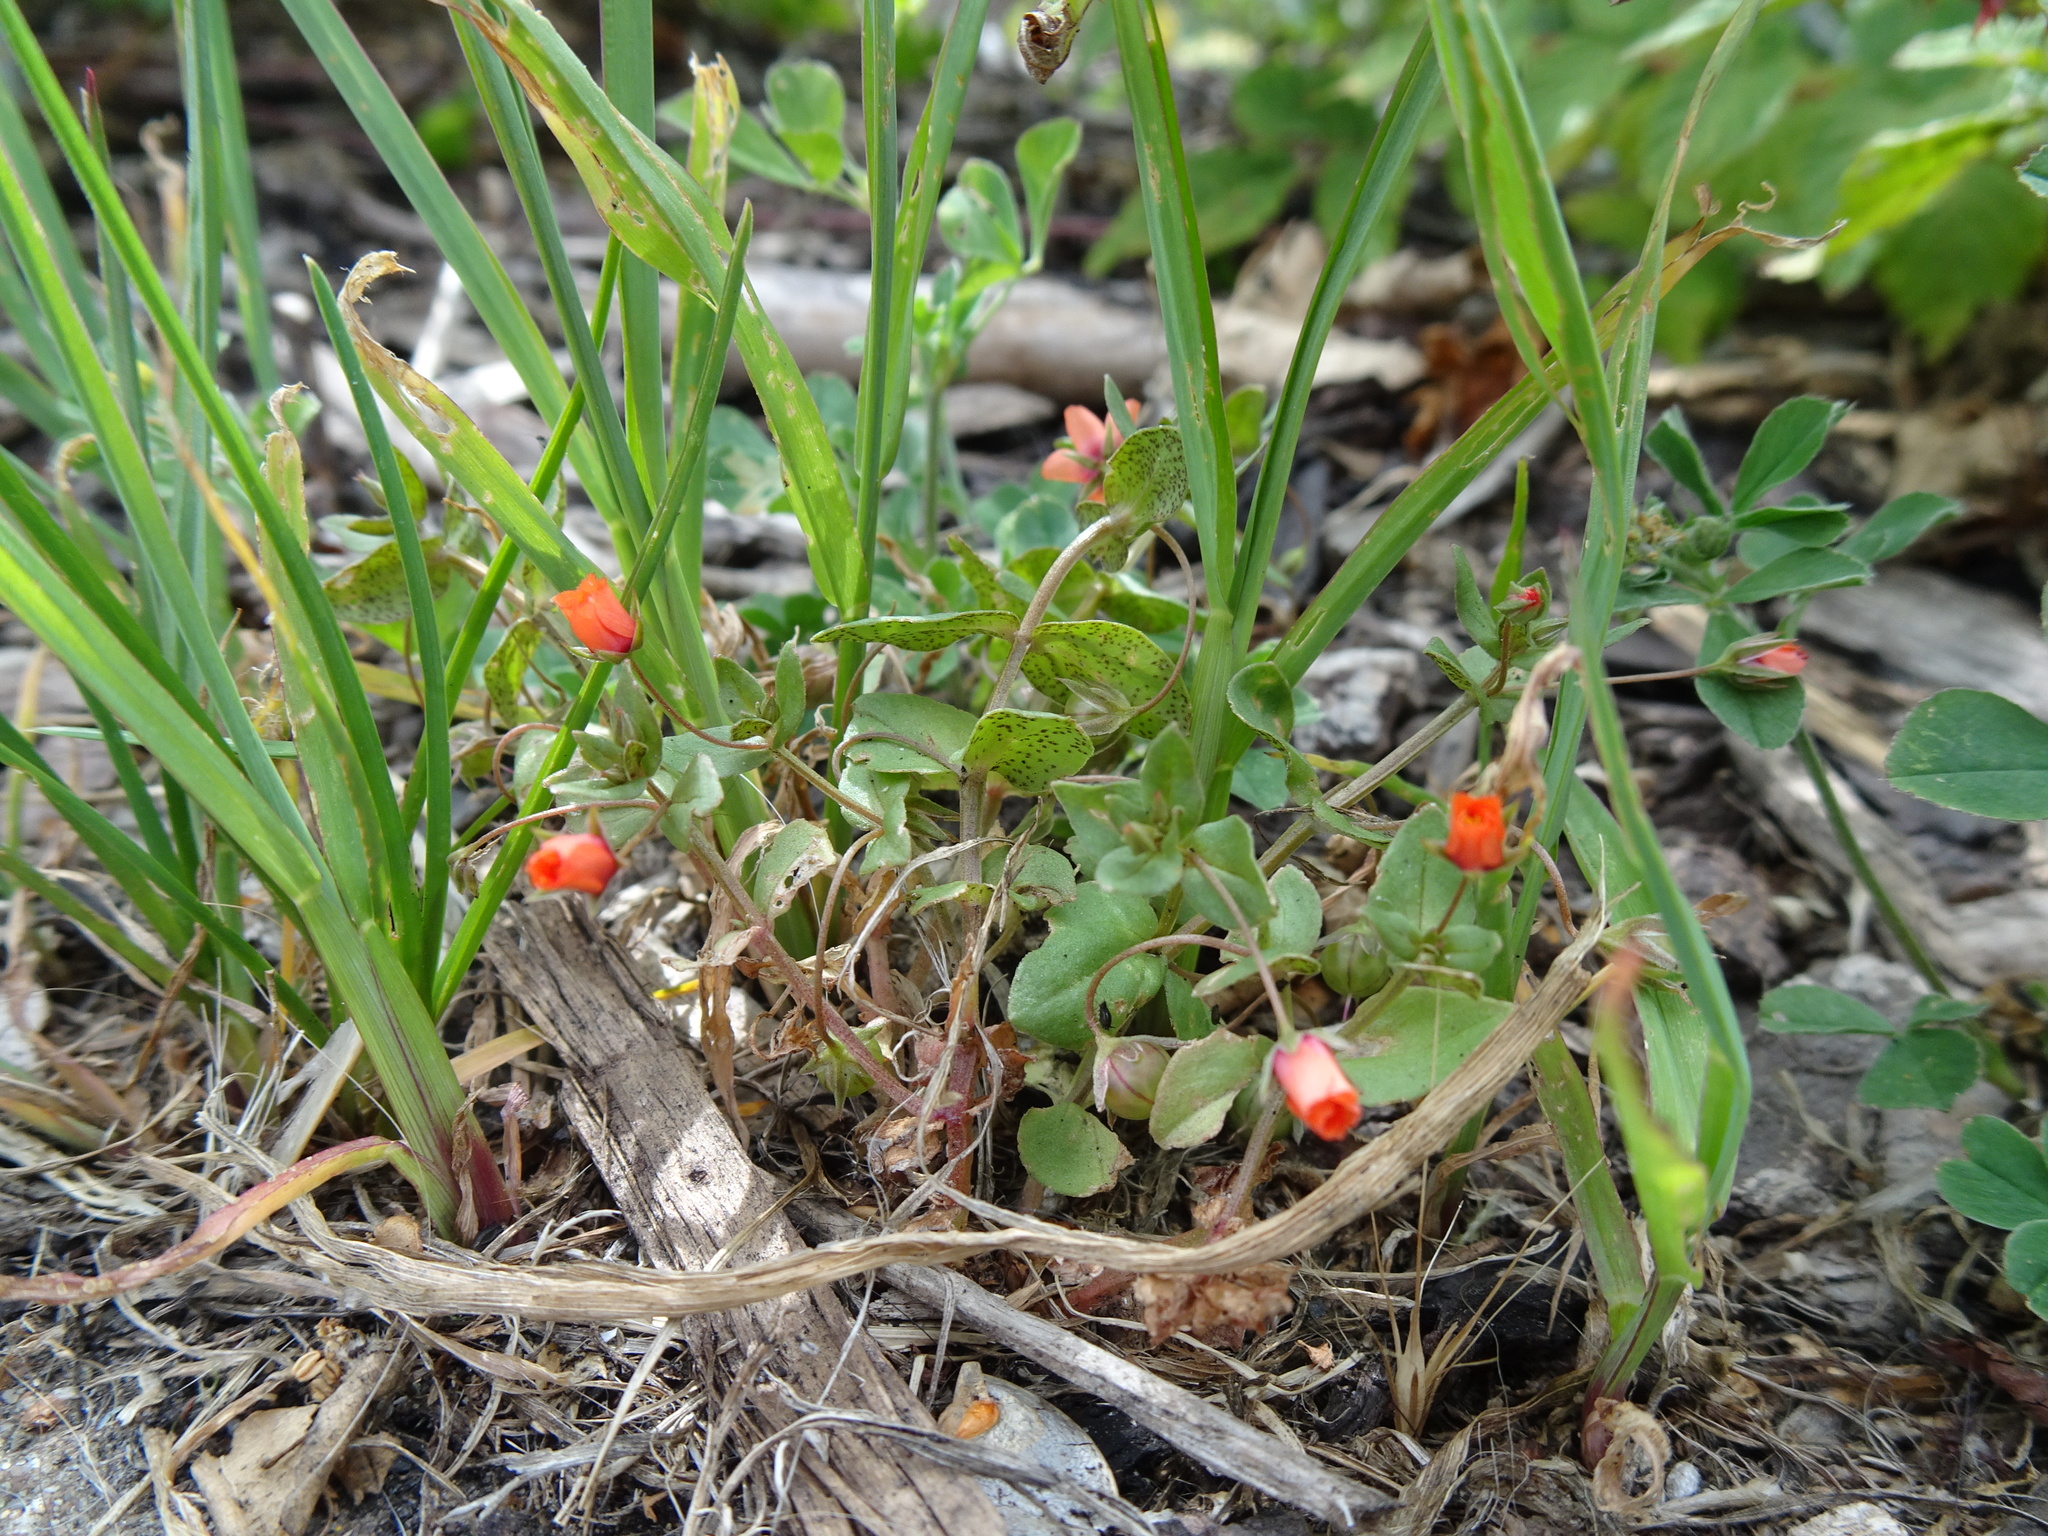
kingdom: Plantae
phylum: Tracheophyta
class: Magnoliopsida
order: Ericales
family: Primulaceae
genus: Lysimachia
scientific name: Lysimachia arvensis
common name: Scarlet pimpernel
